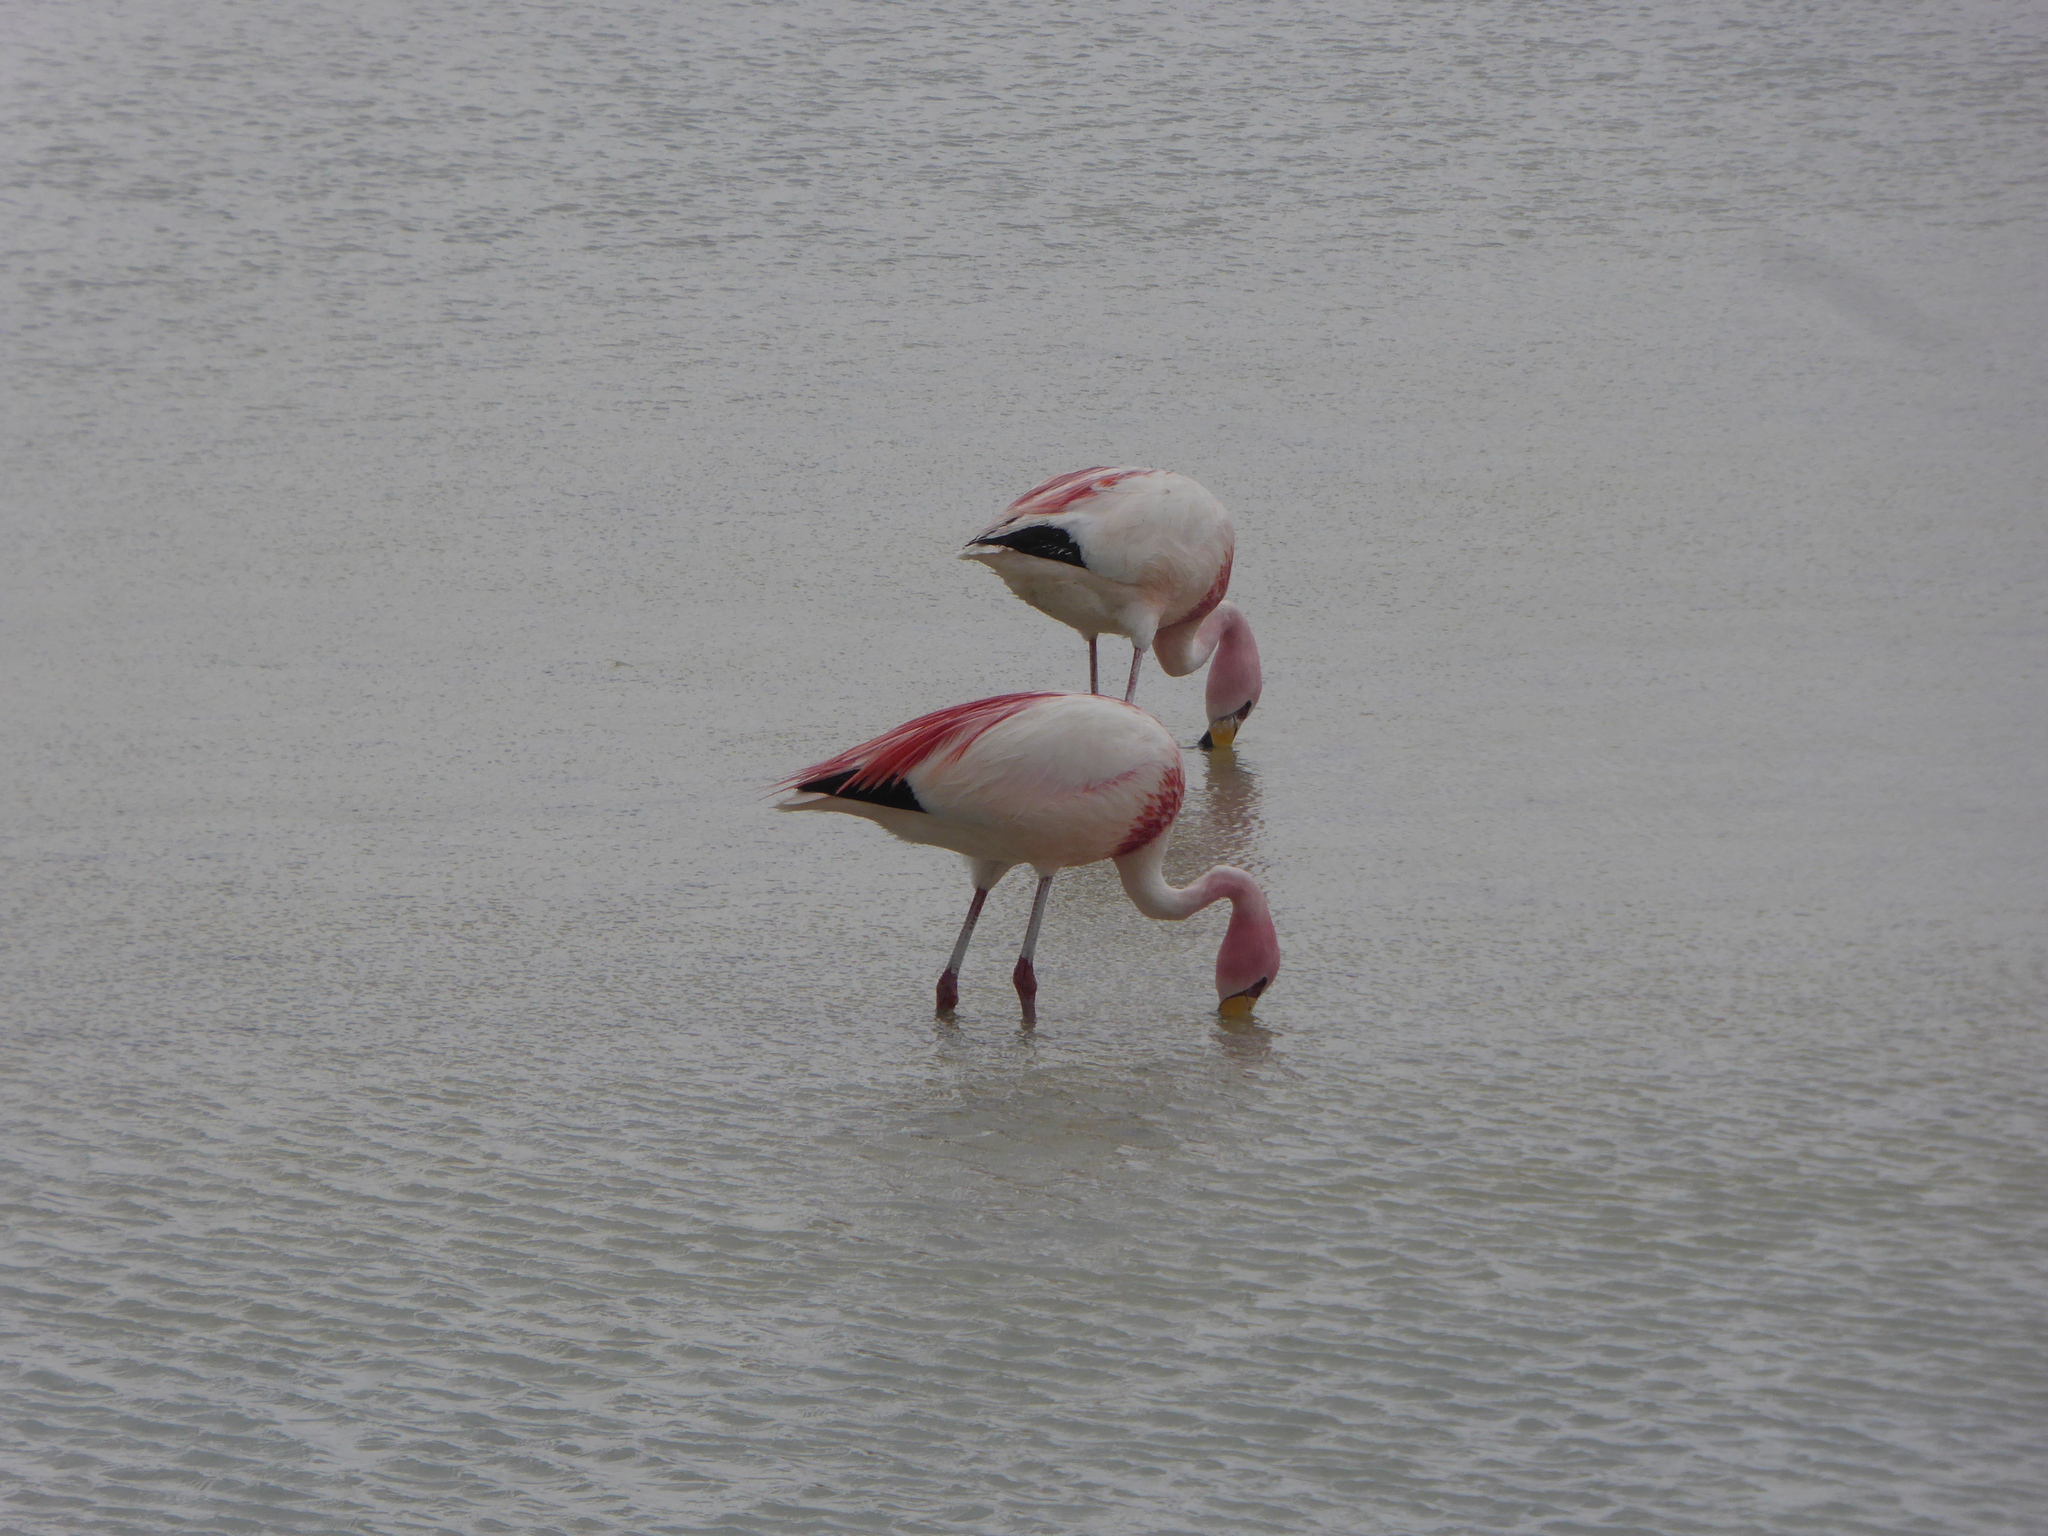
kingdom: Animalia
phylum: Chordata
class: Aves
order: Phoenicopteriformes
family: Phoenicopteridae
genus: Phoenicoparrus
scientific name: Phoenicoparrus jamesi
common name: James's flamingo
